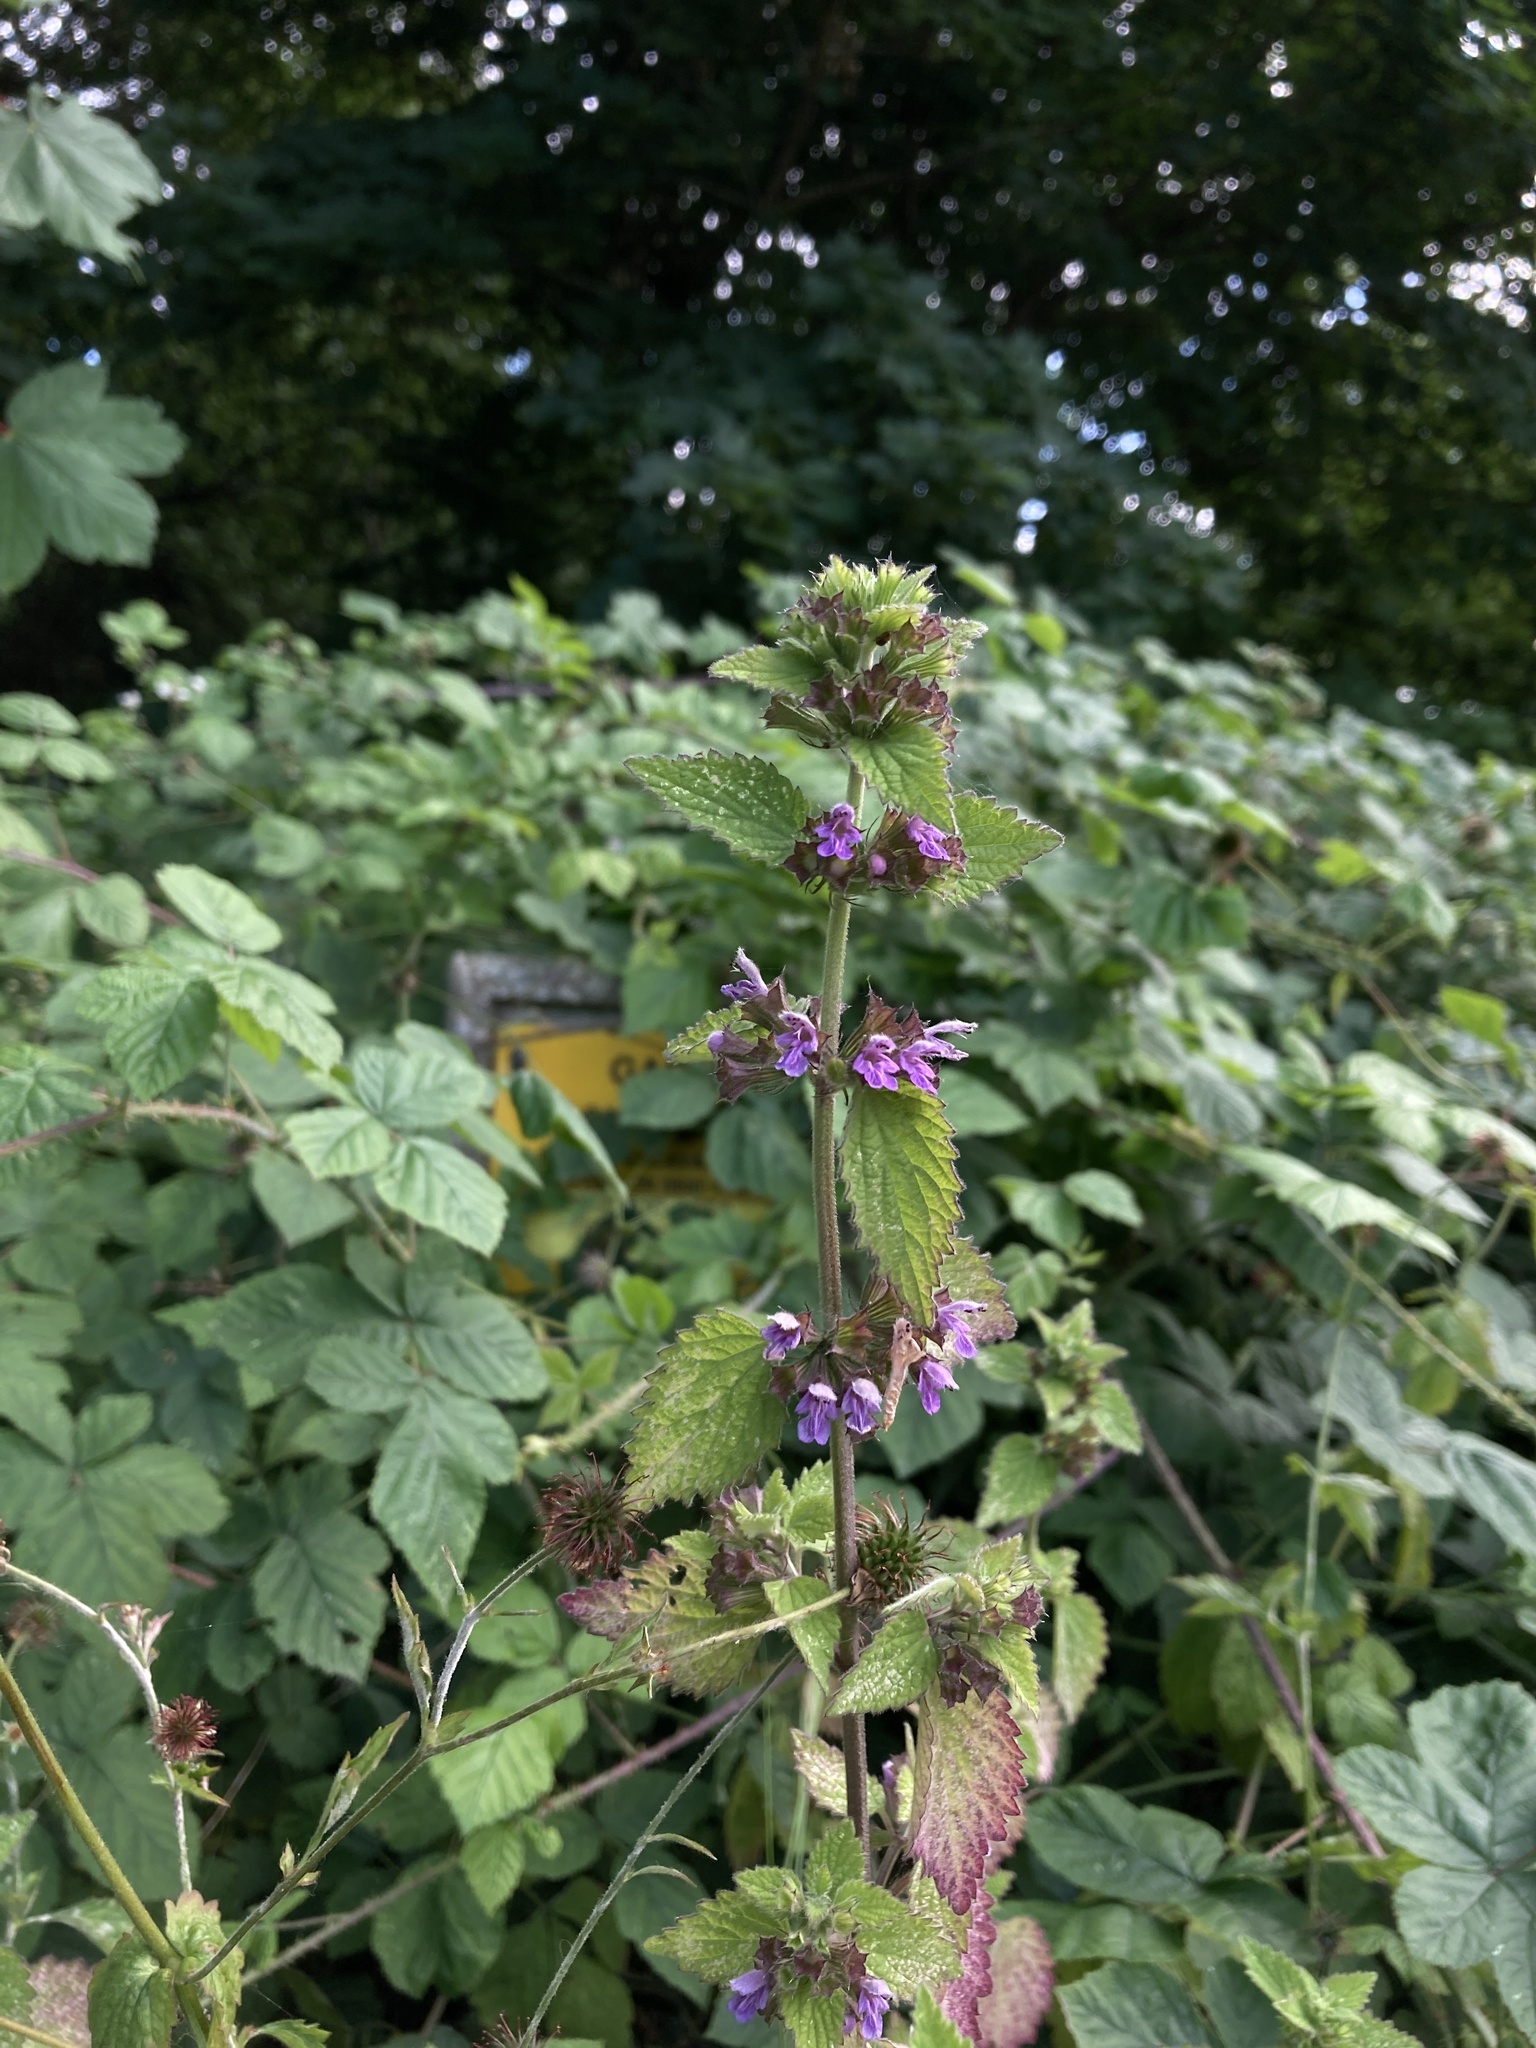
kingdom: Plantae
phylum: Tracheophyta
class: Magnoliopsida
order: Lamiales
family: Lamiaceae
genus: Ballota
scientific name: Ballota nigra
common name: Black horehound
